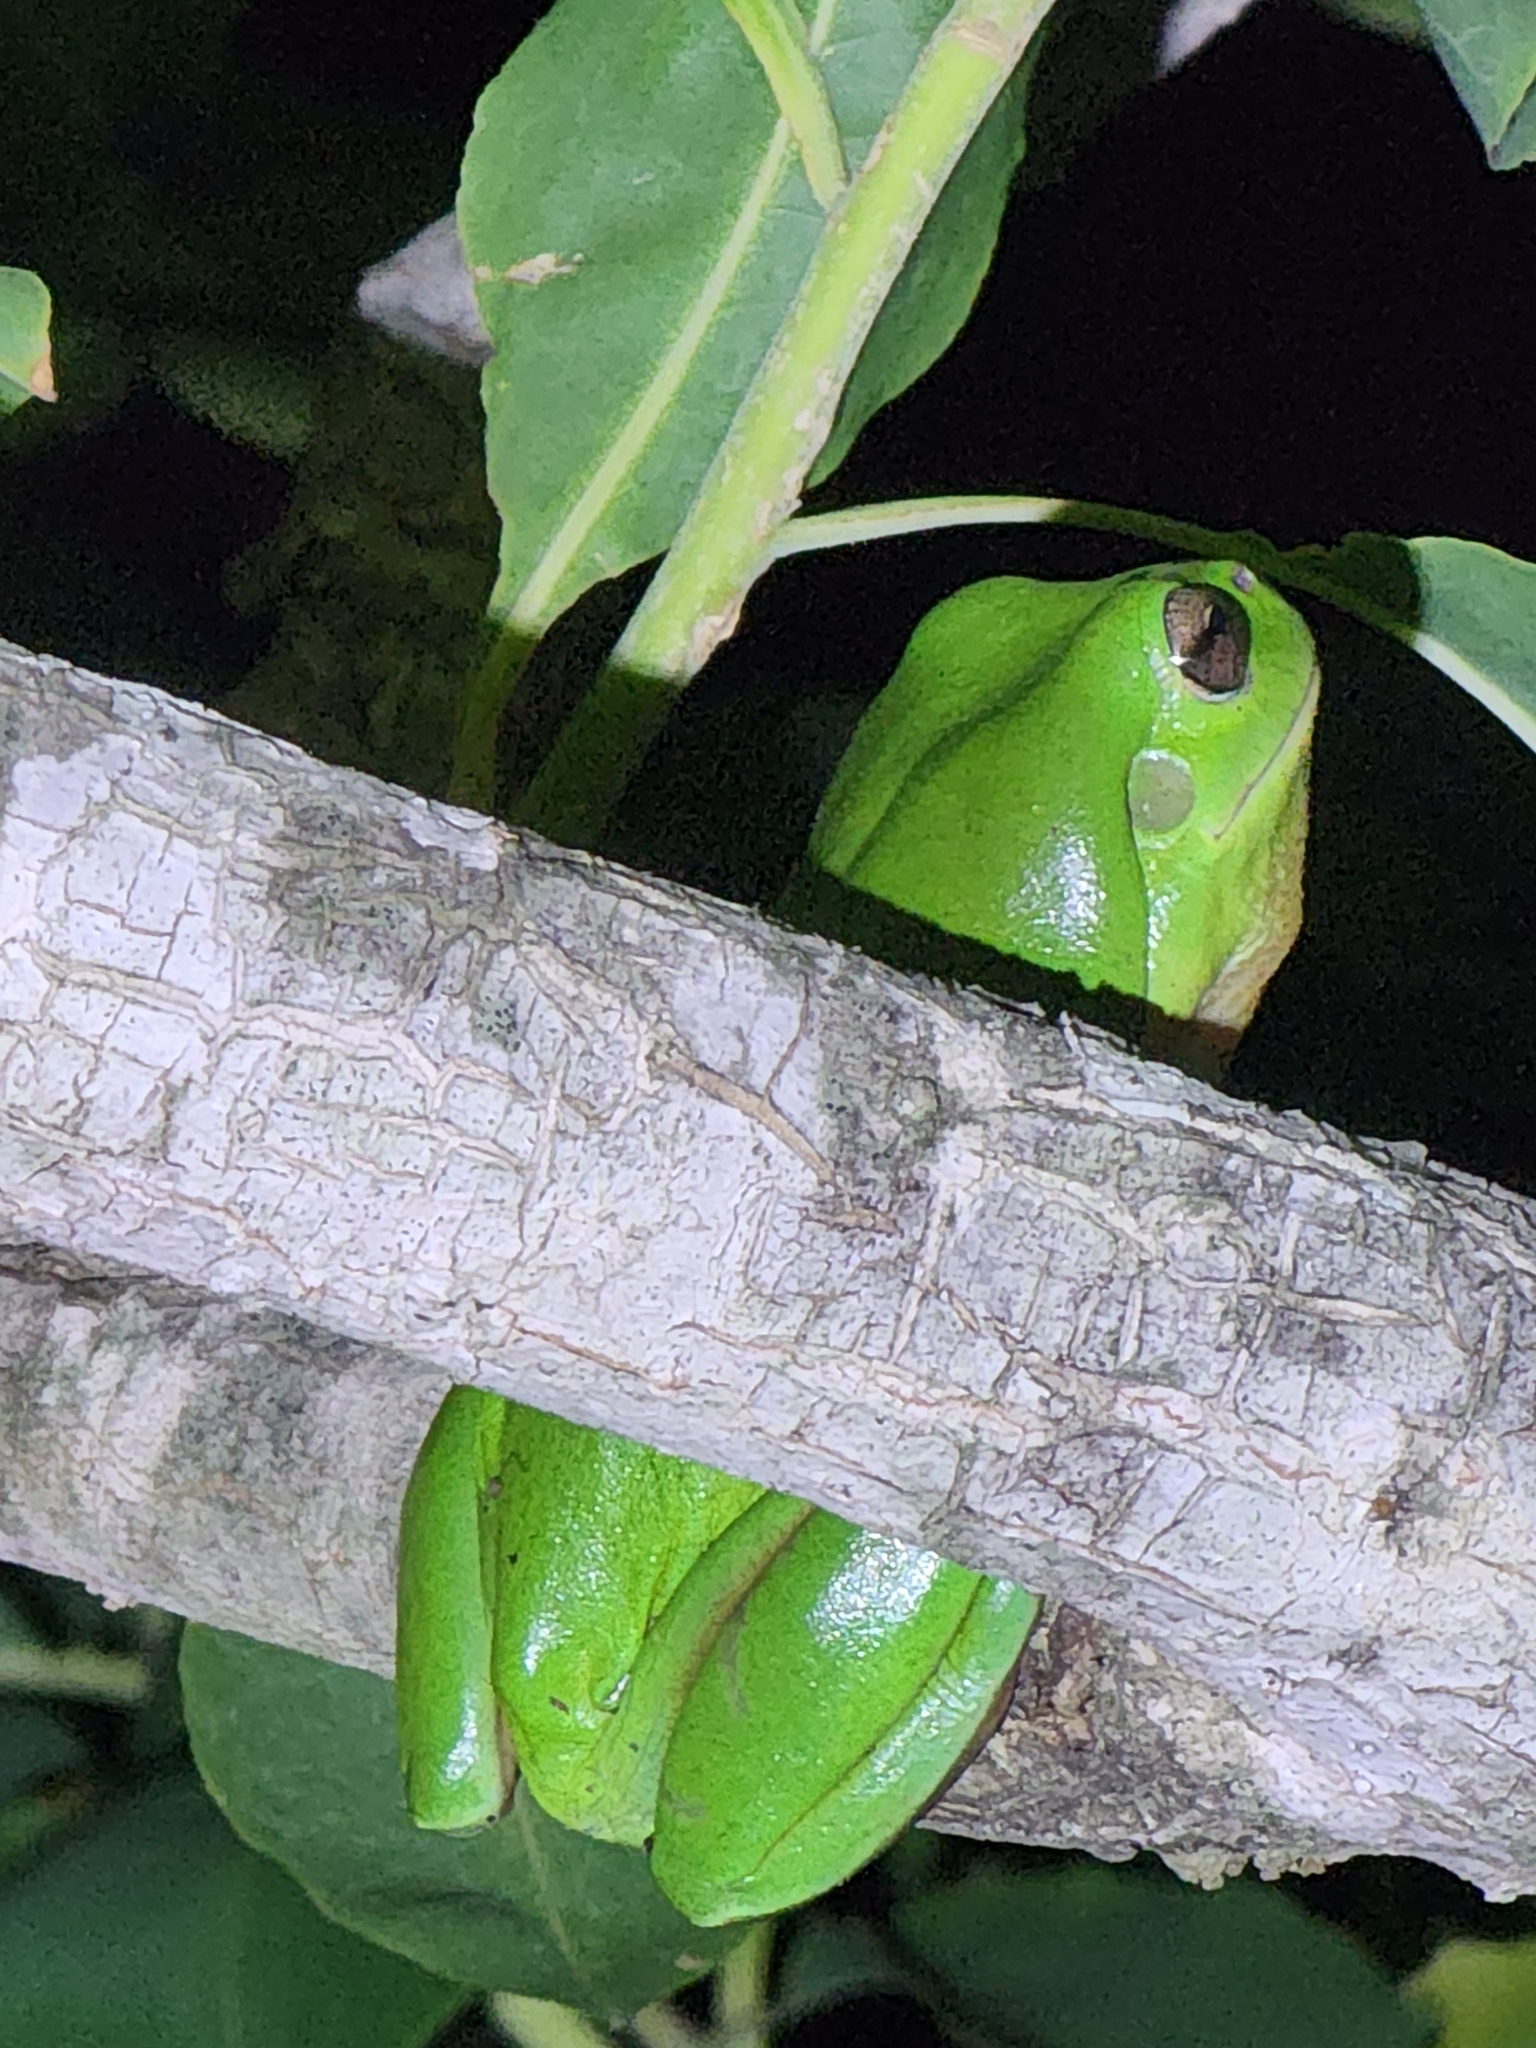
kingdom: Animalia
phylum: Chordata
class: Amphibia
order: Anura
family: Pelodryadidae
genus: Ranoidea
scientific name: Ranoidea caerulea
